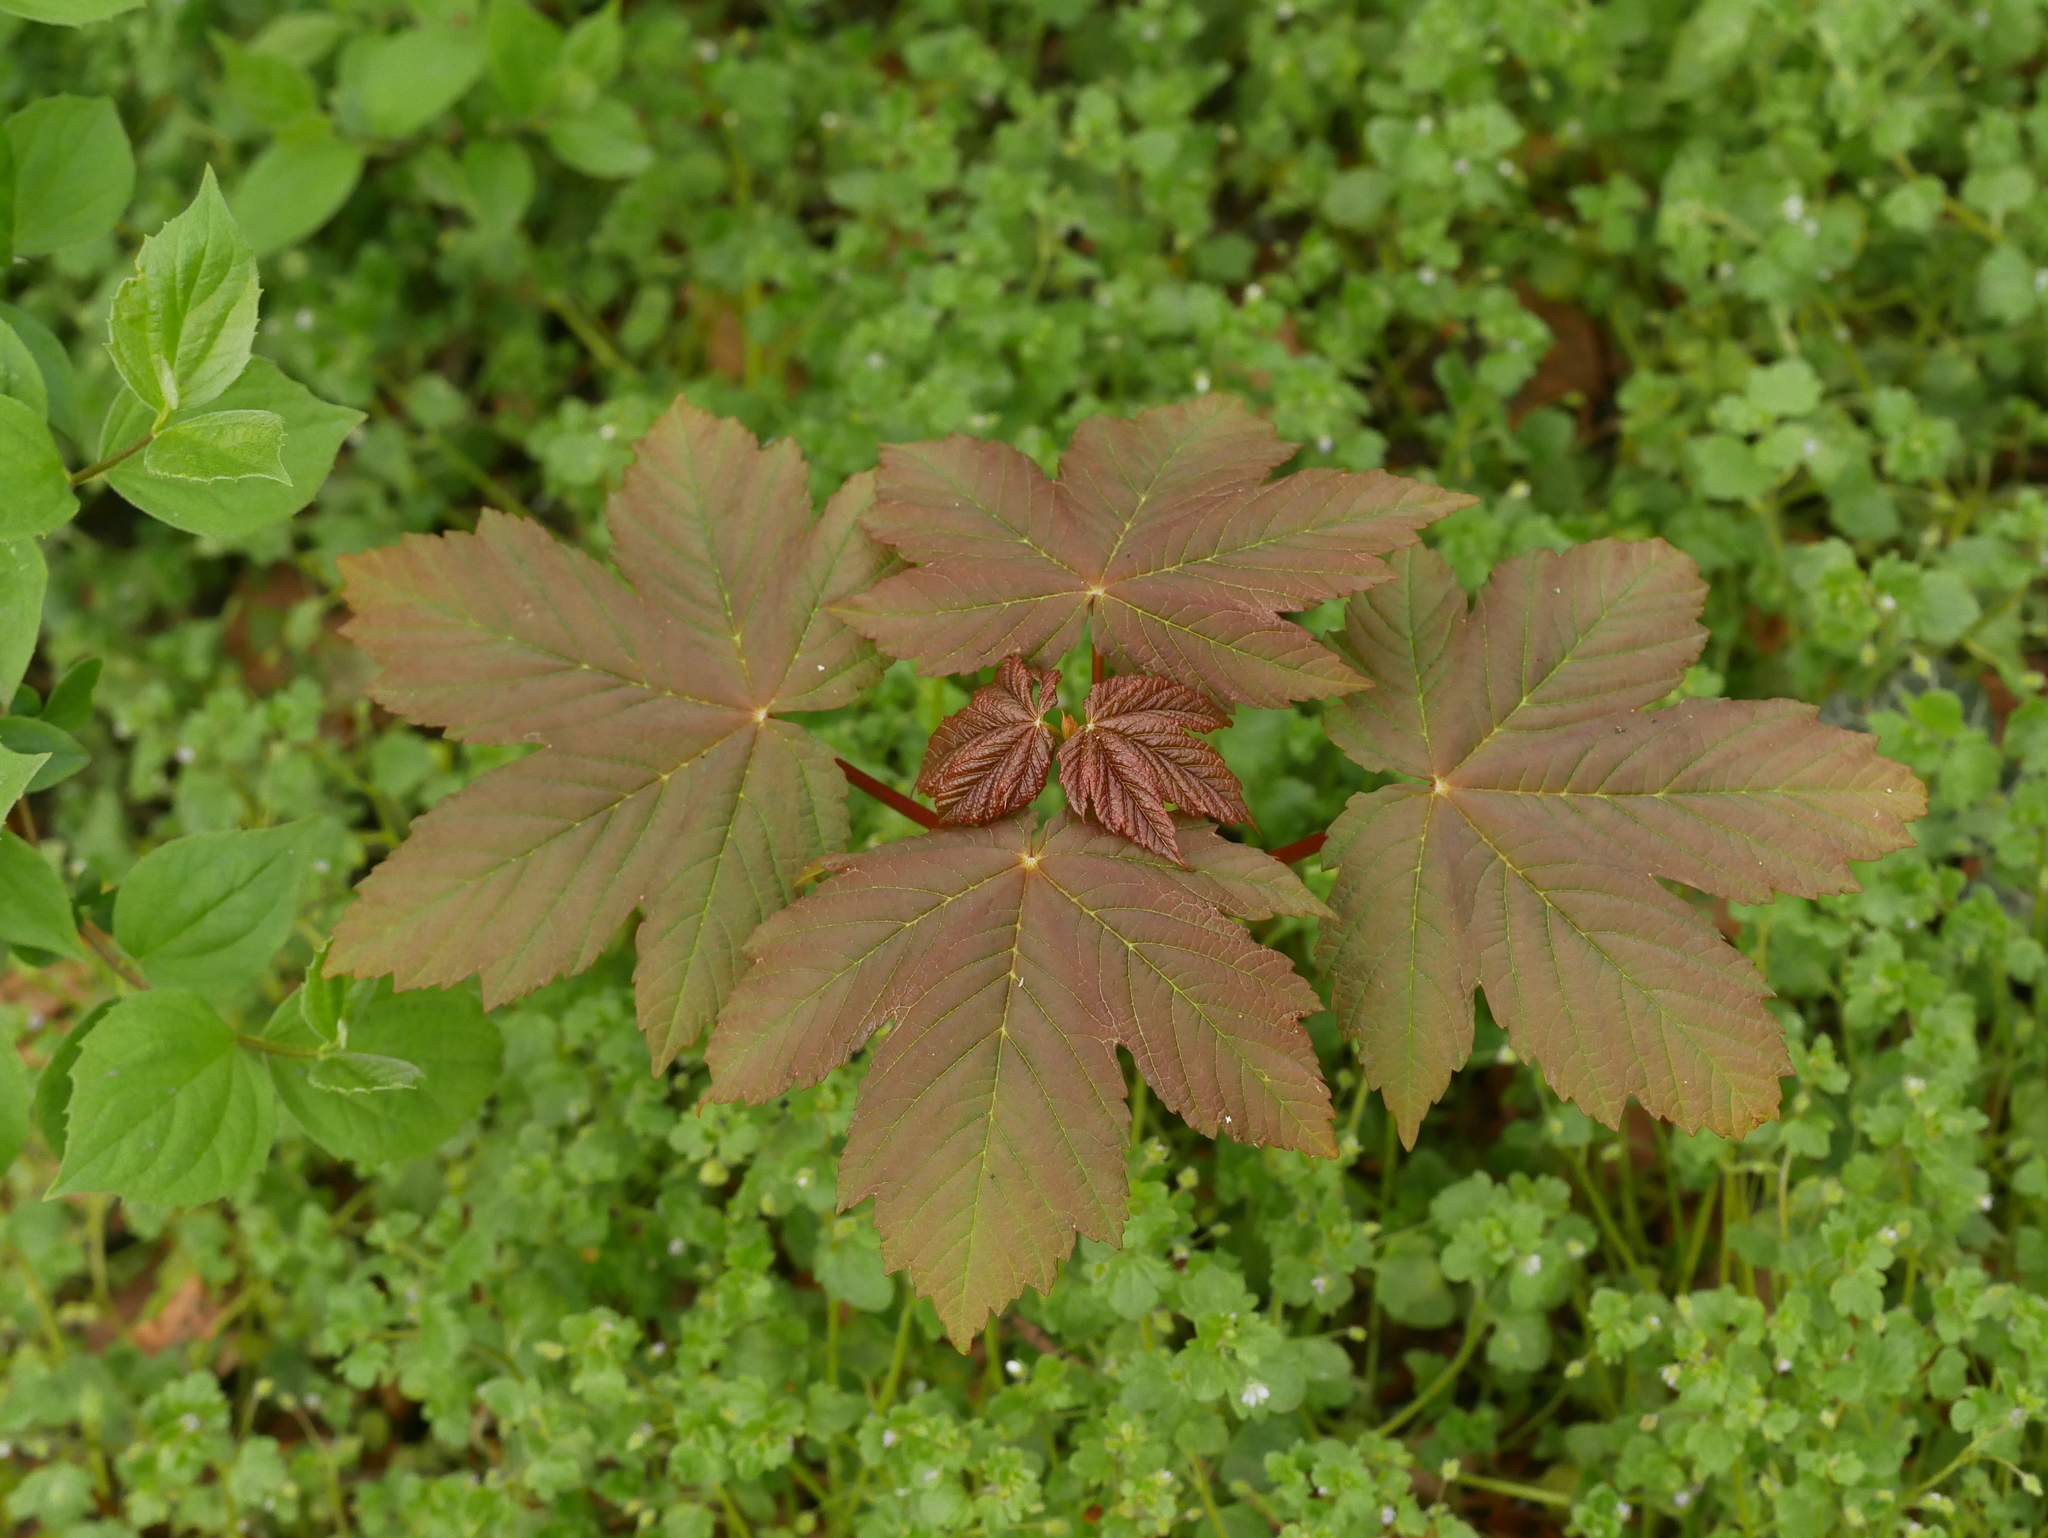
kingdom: Plantae
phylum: Tracheophyta
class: Magnoliopsida
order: Sapindales
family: Sapindaceae
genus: Acer
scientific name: Acer pseudoplatanus
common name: Sycamore
